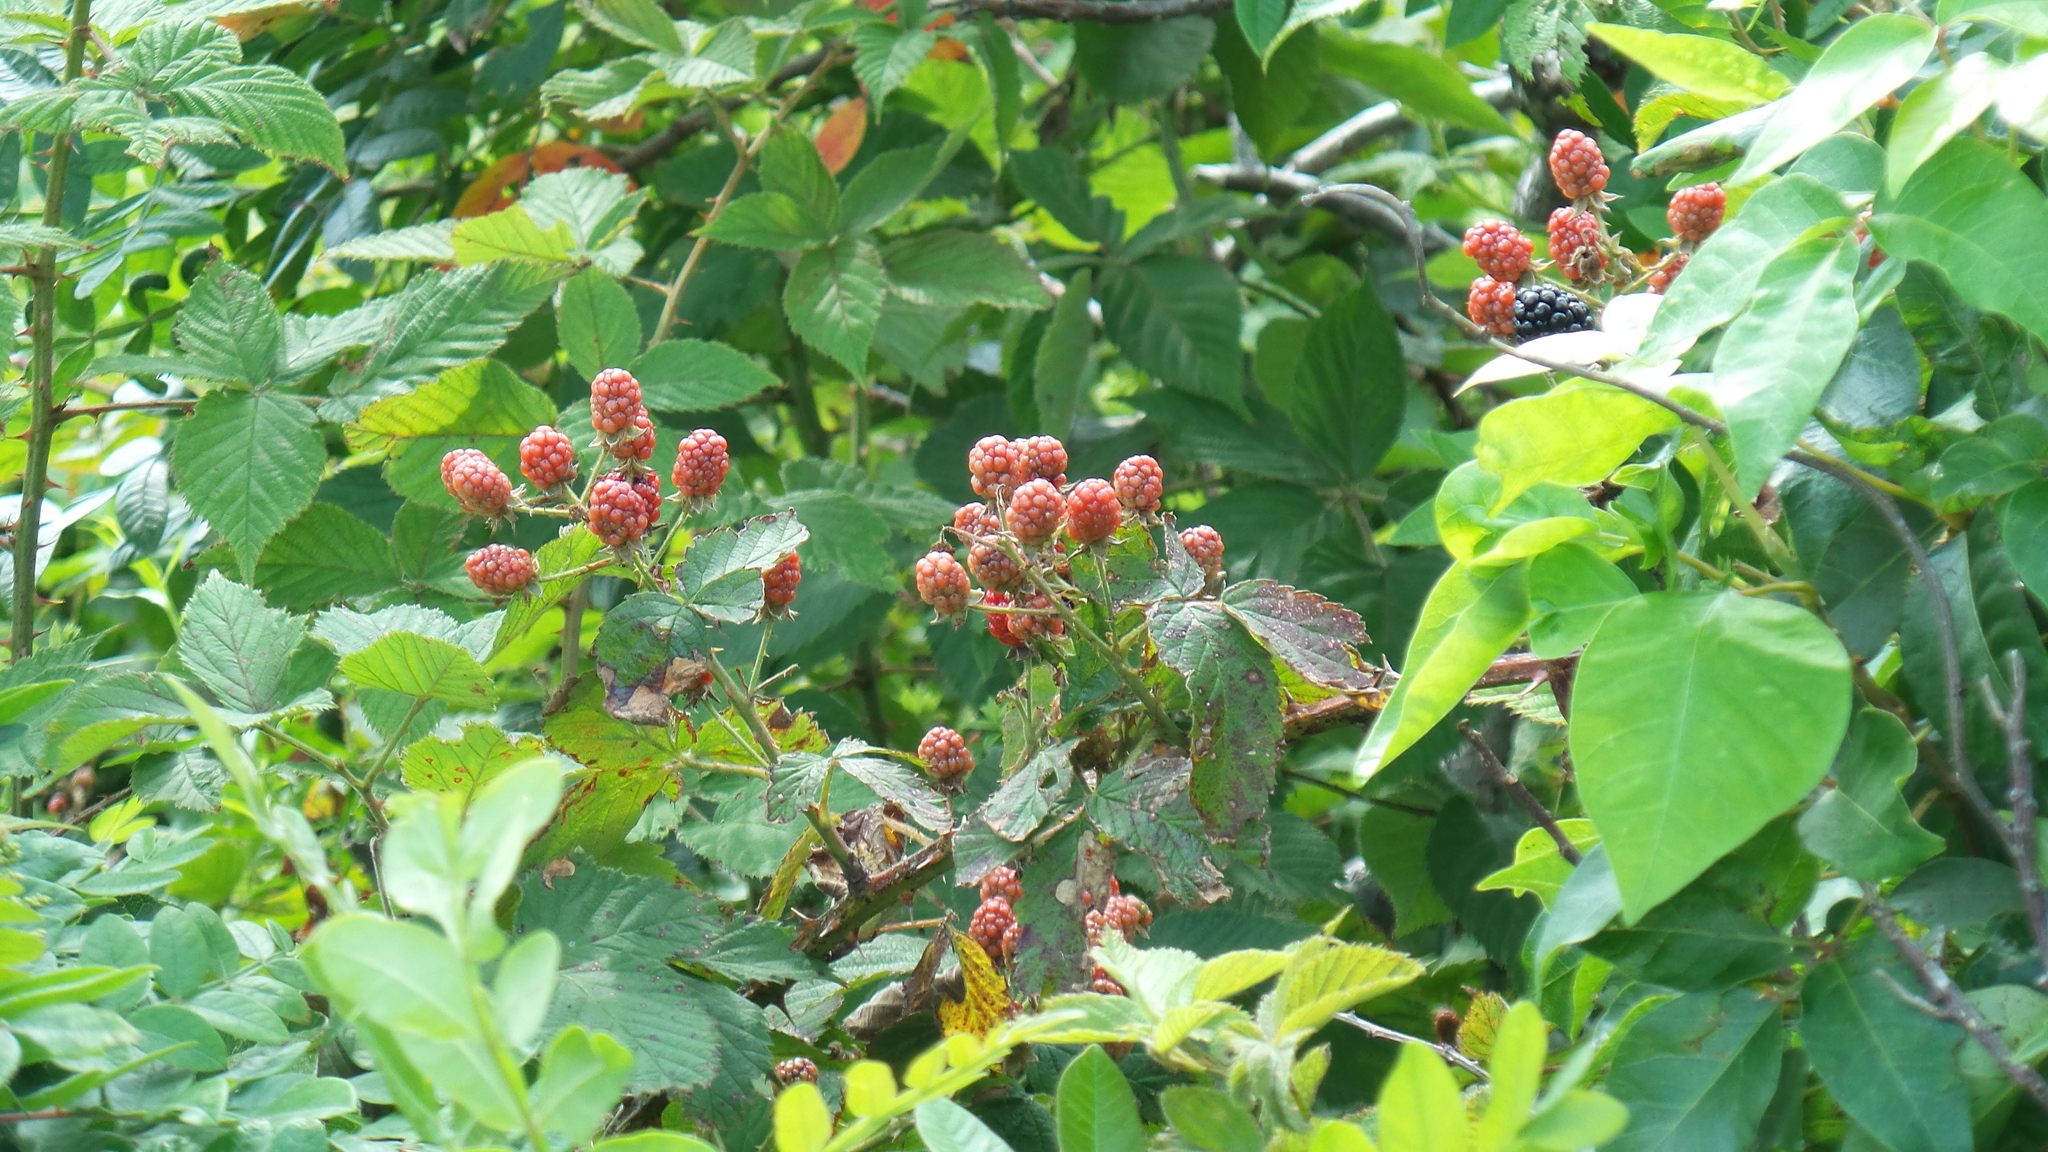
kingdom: Plantae
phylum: Tracheophyta
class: Magnoliopsida
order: Rosales
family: Rosaceae
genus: Rubus
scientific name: Rubus allegheniensis
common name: Allegheny blackberry
